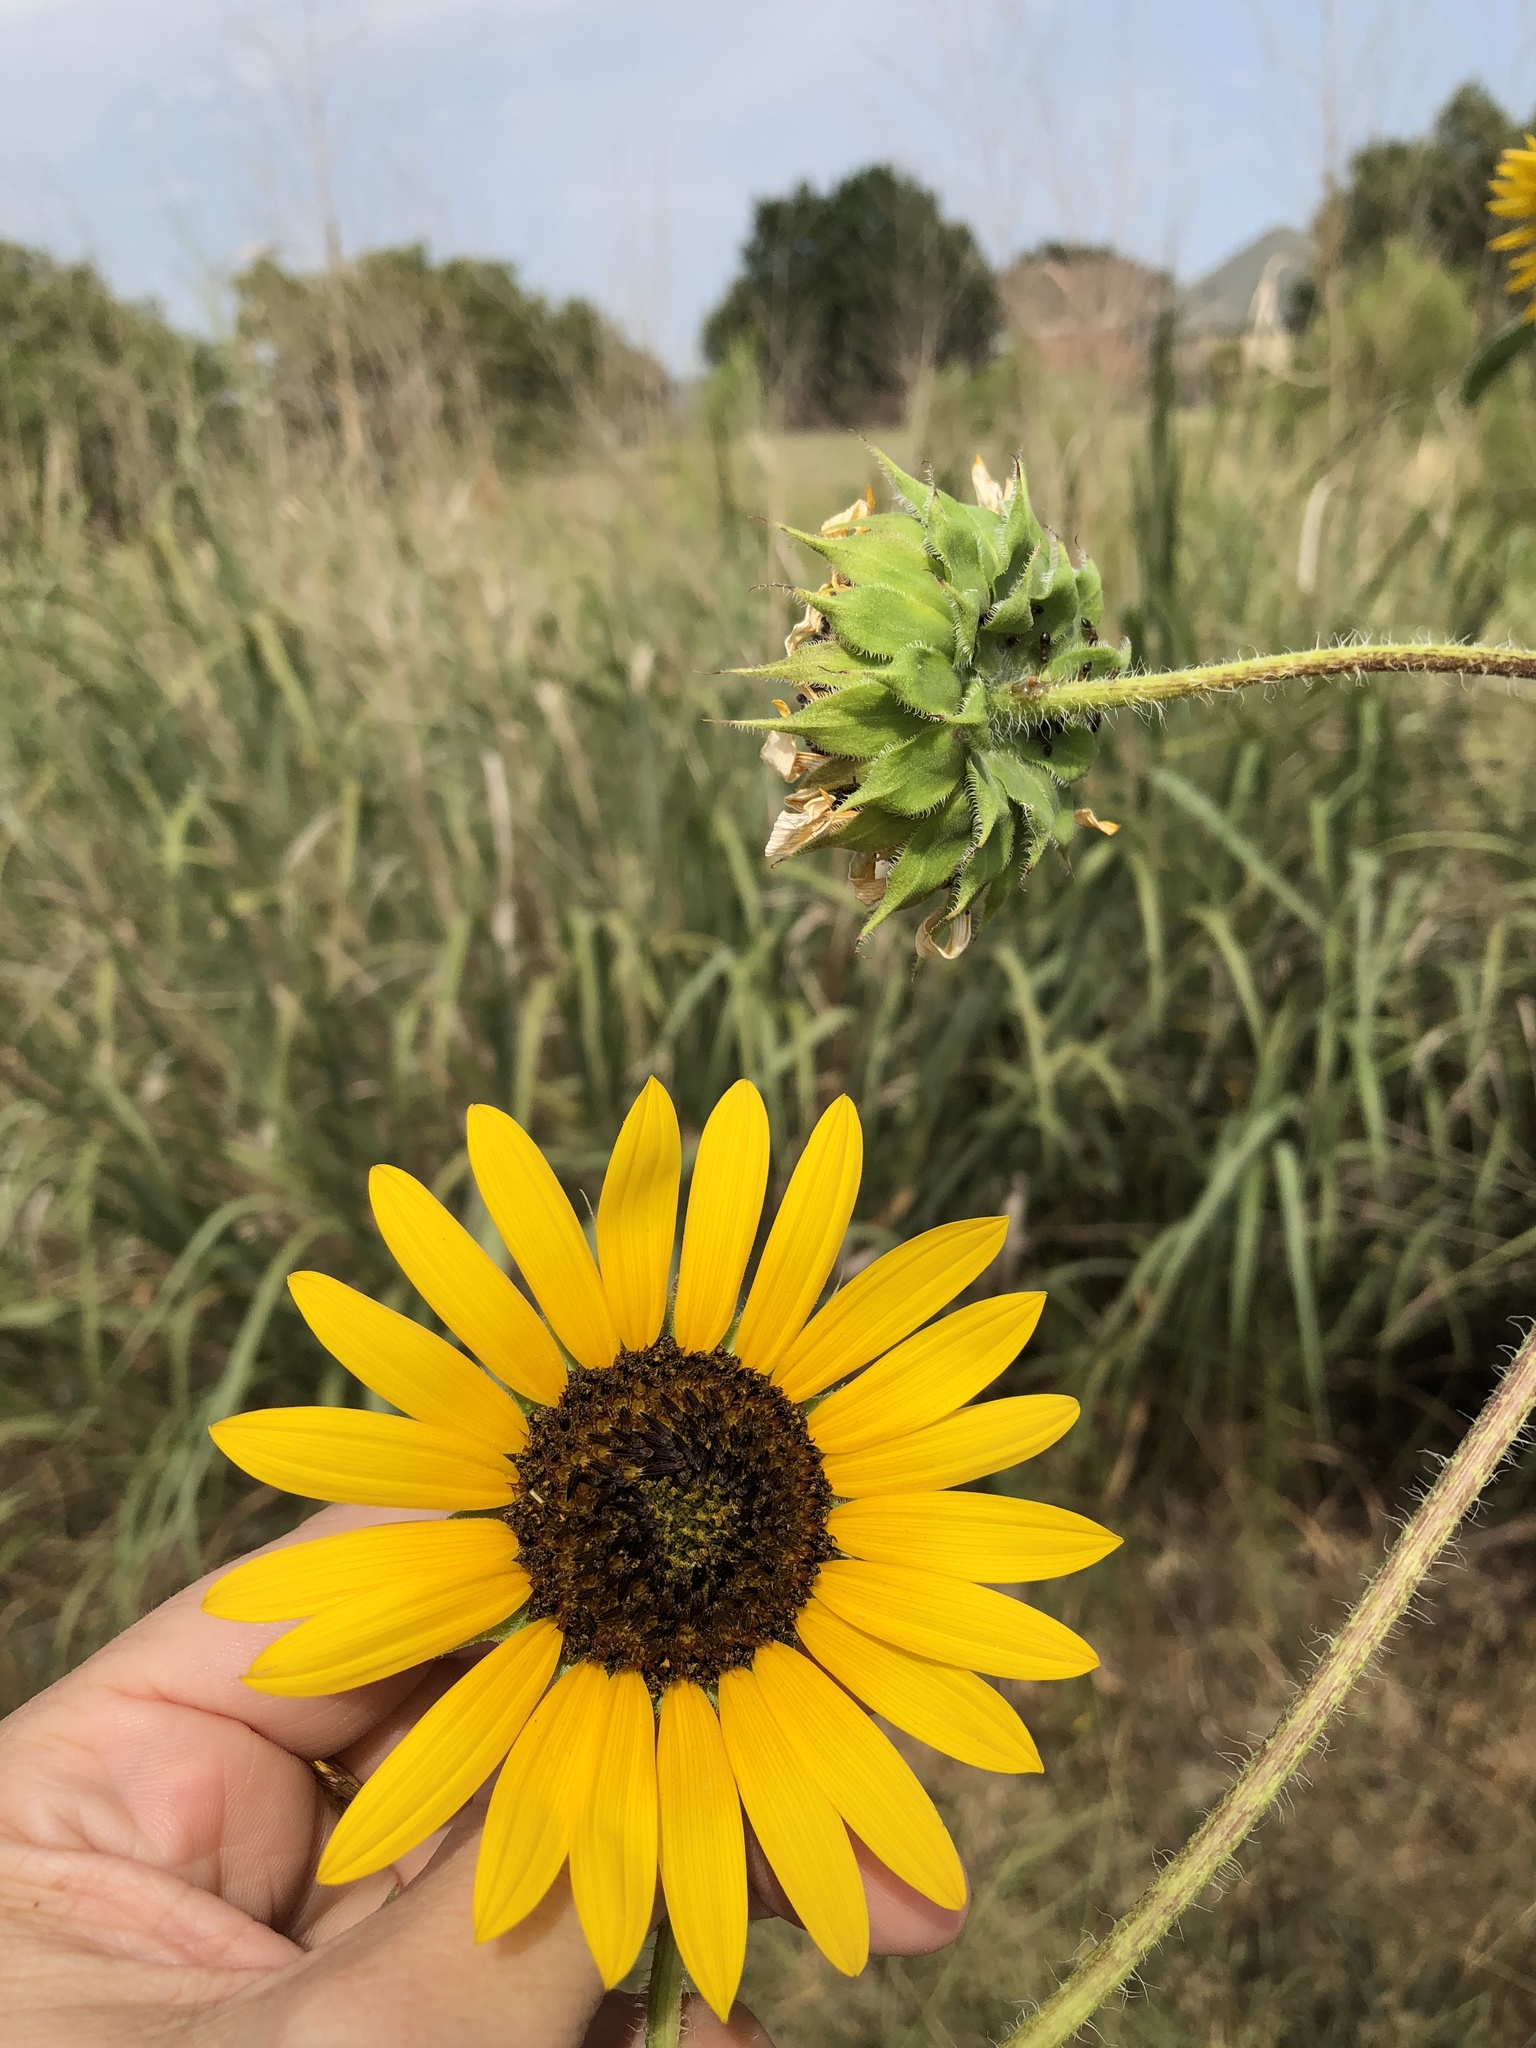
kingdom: Plantae
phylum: Tracheophyta
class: Magnoliopsida
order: Asterales
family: Asteraceae
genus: Helianthus
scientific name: Helianthus annuus
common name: Sunflower
